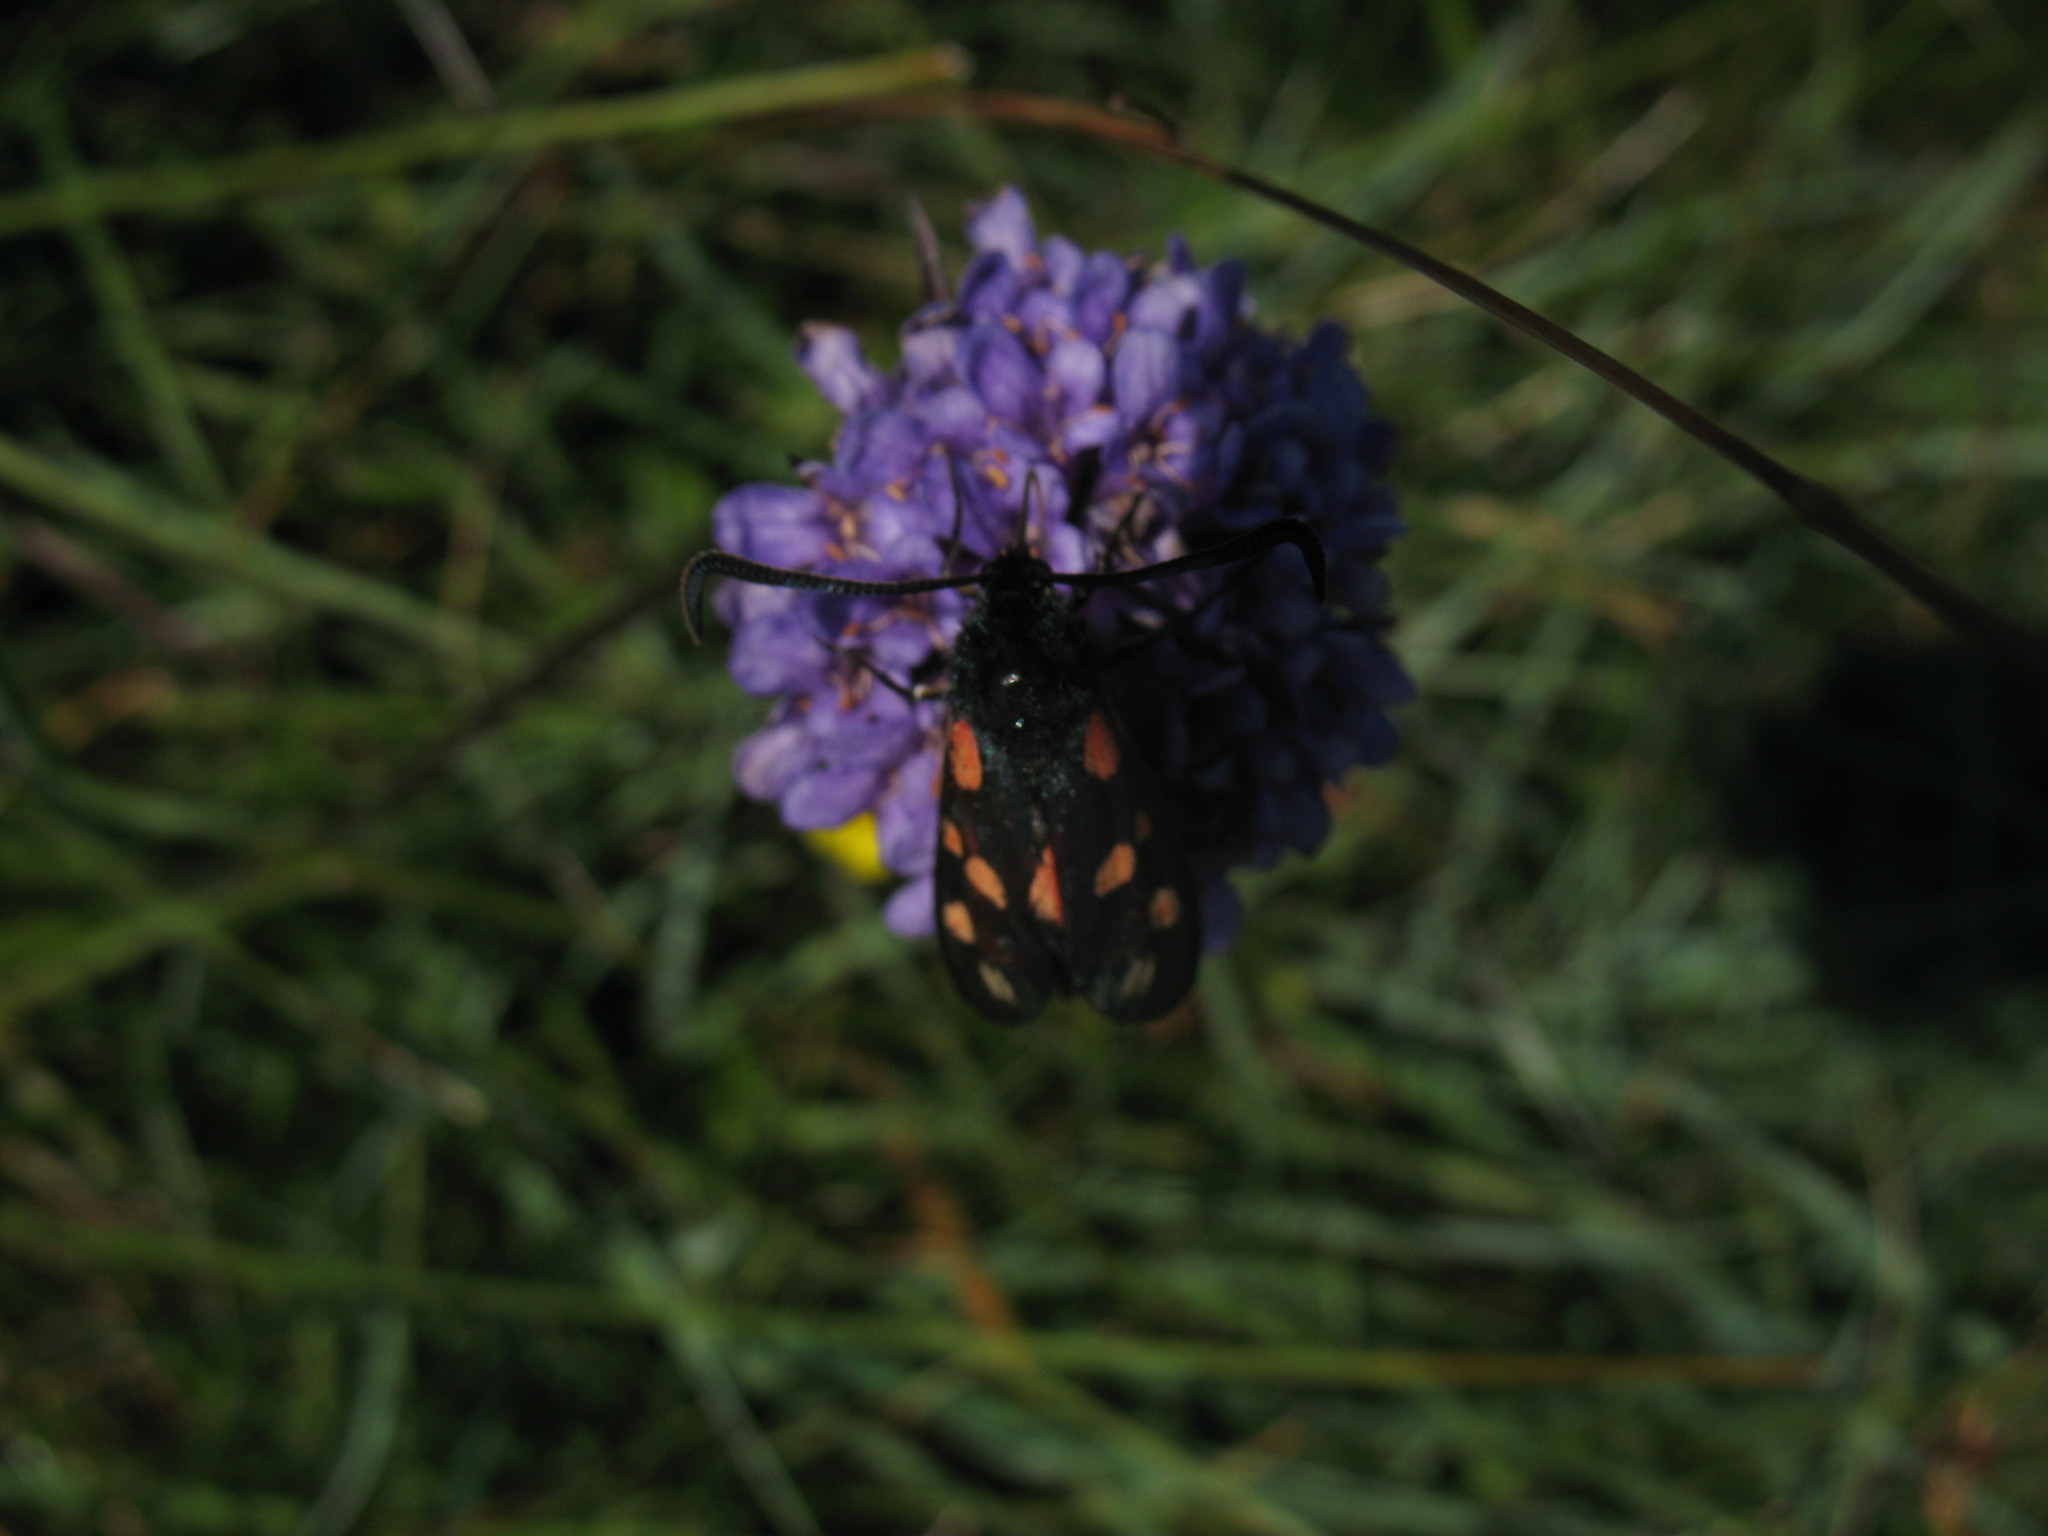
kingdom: Animalia
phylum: Arthropoda
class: Insecta
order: Lepidoptera
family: Zygaenidae
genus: Zygaena
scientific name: Zygaena filipendulae
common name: Six-spot burnet
